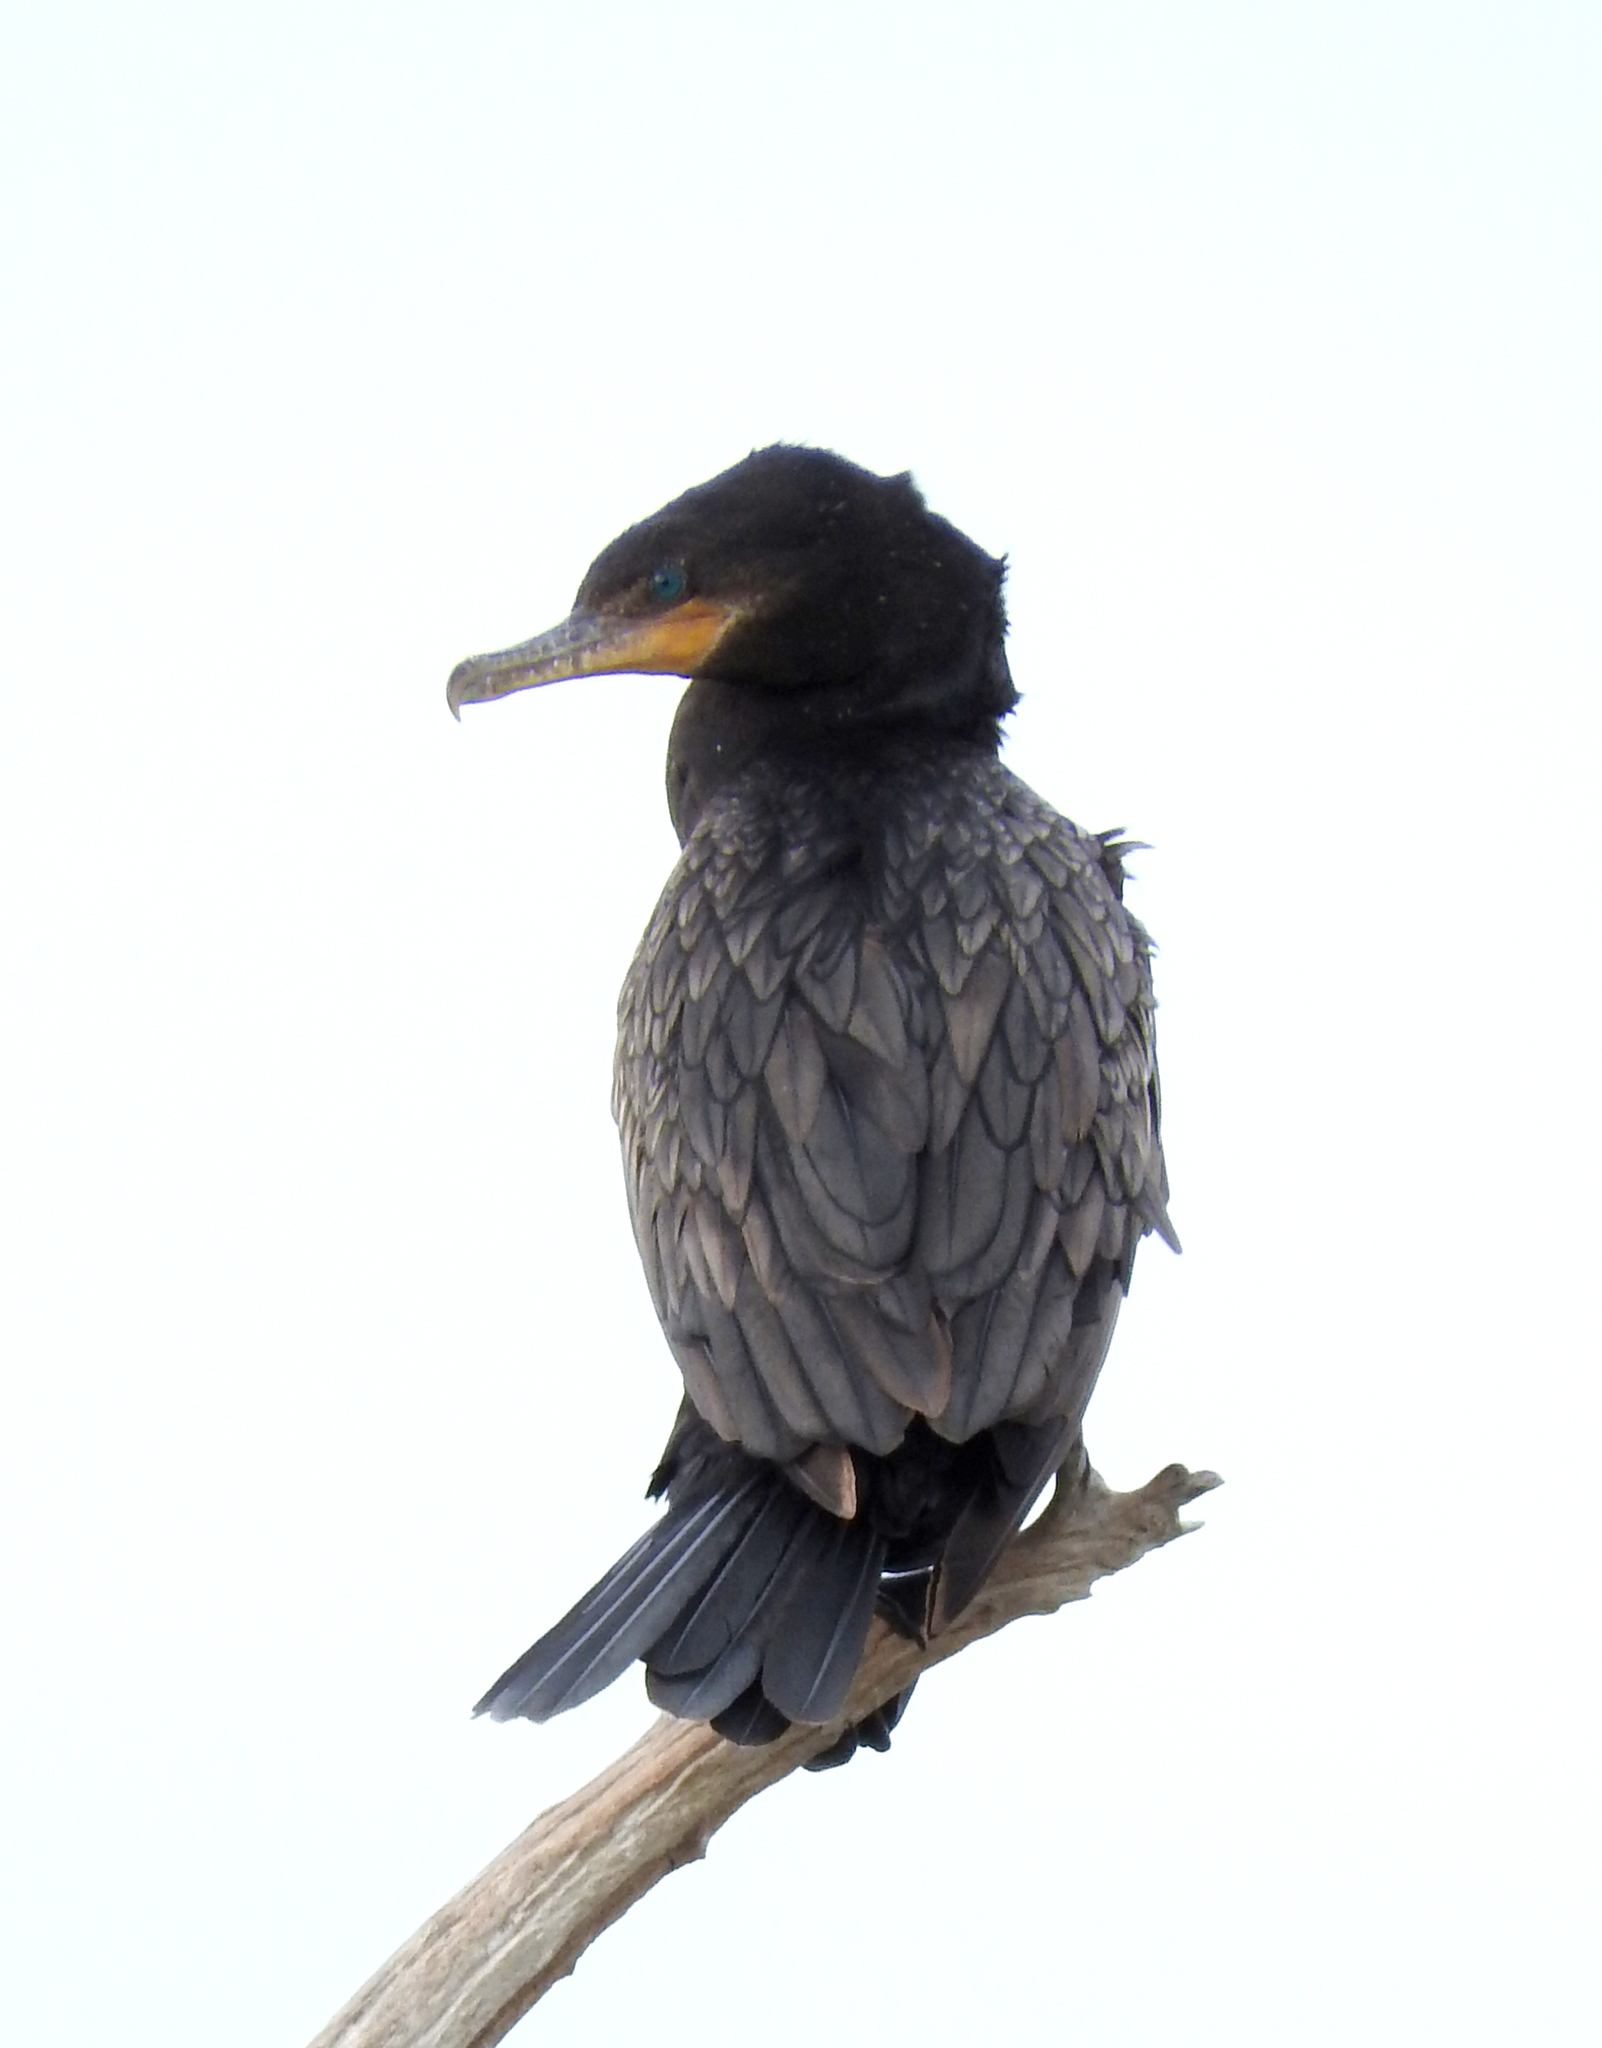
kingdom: Animalia
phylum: Chordata
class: Aves
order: Suliformes
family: Phalacrocoracidae
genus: Phalacrocorax
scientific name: Phalacrocorax brasilianus
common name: Neotropic cormorant
